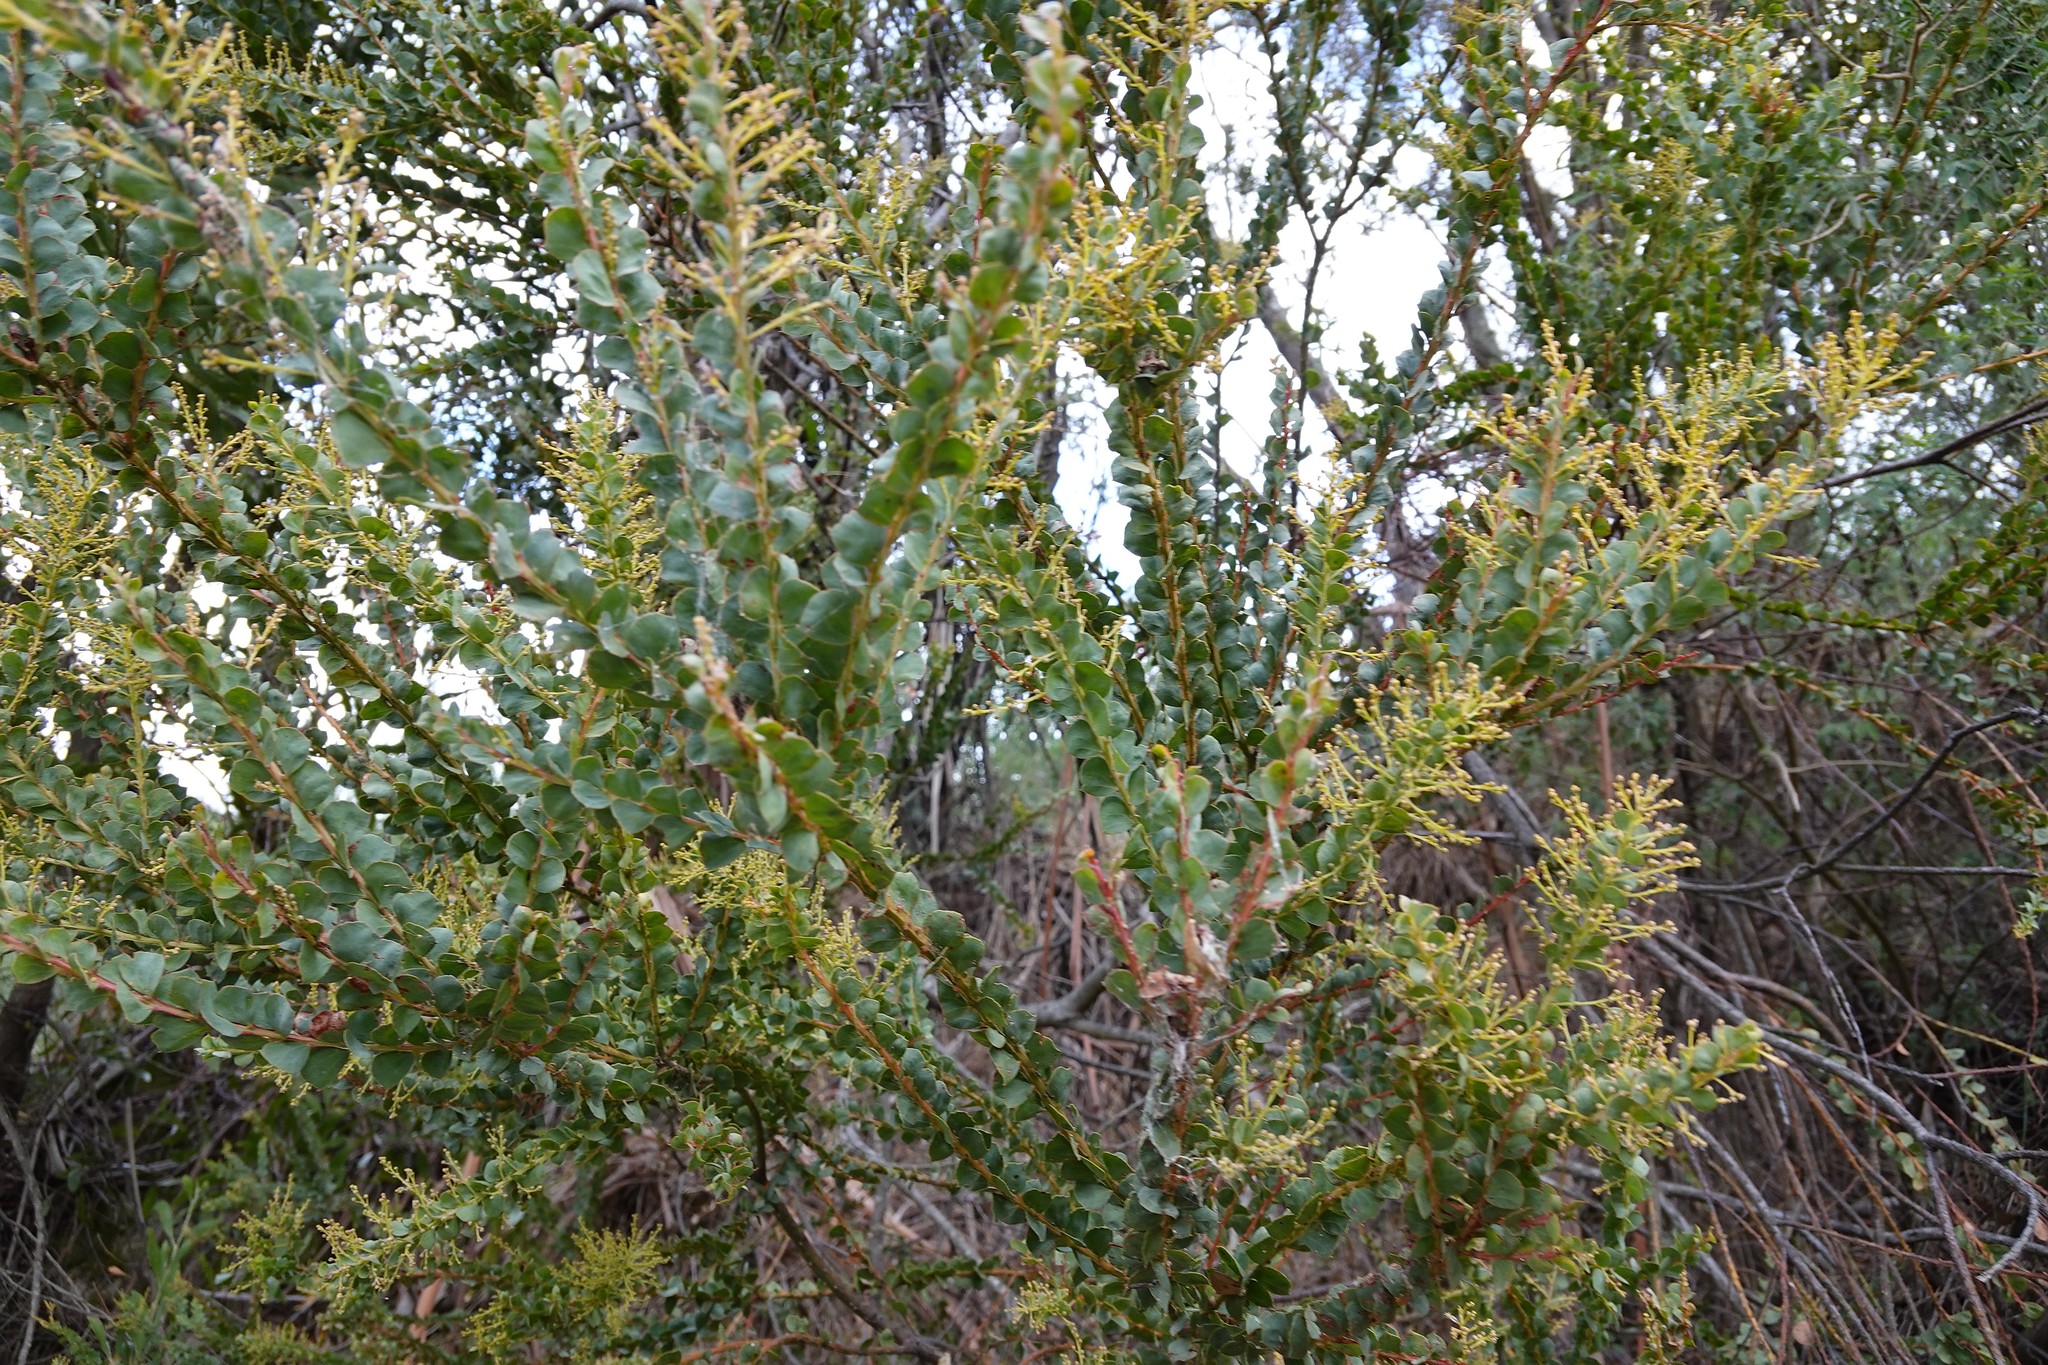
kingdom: Plantae
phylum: Tracheophyta
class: Magnoliopsida
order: Fabales
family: Fabaceae
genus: Acacia
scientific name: Acacia pravissima
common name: Tumut wattle
